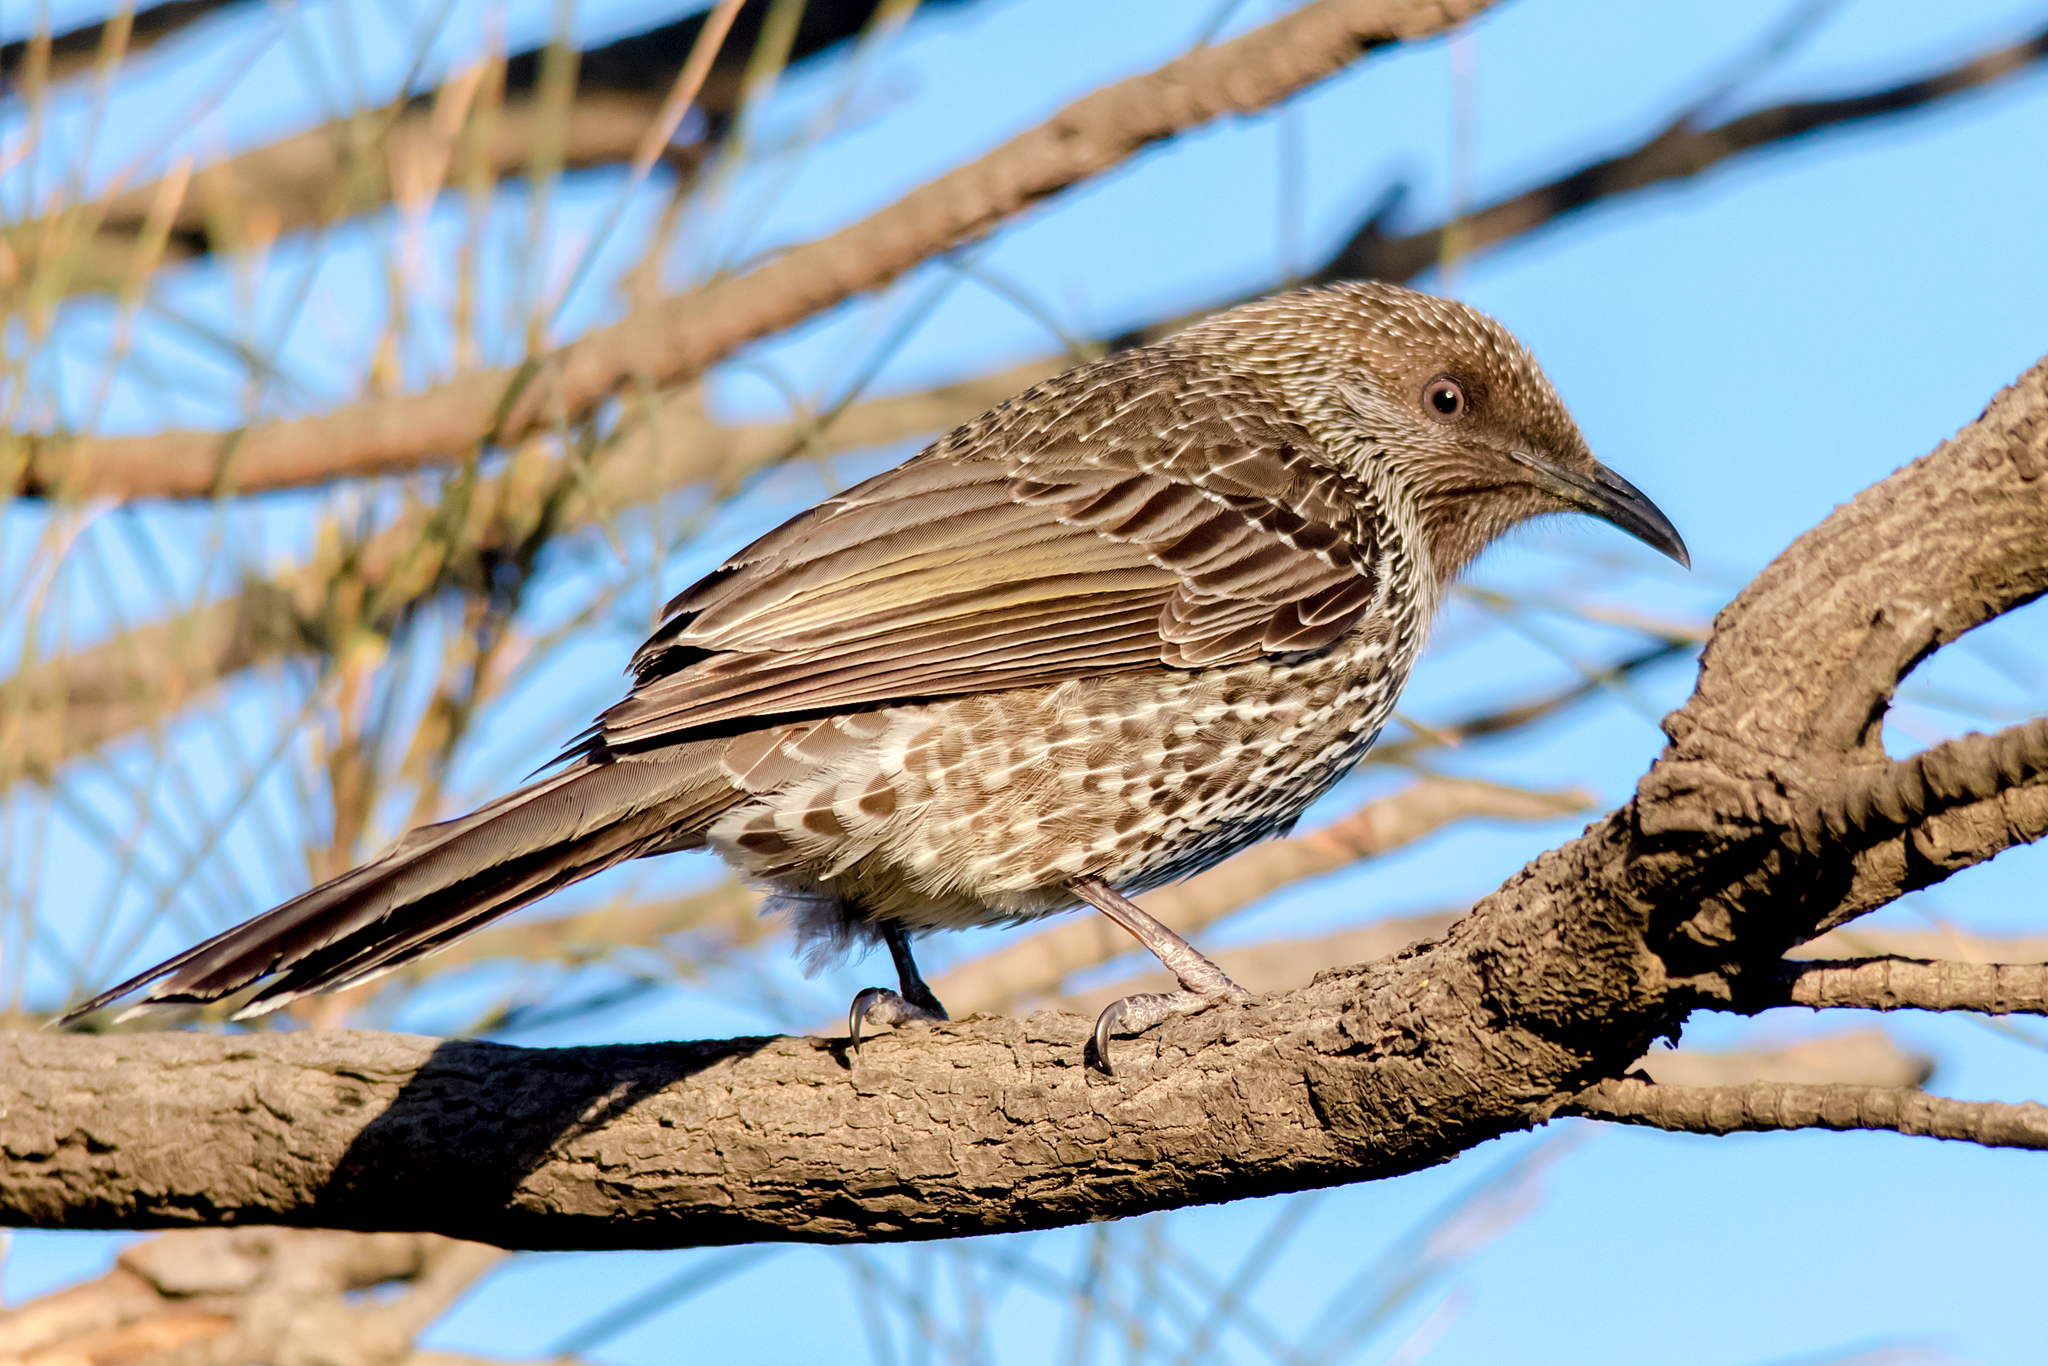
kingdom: Animalia
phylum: Chordata
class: Aves
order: Passeriformes
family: Meliphagidae
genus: Anthochaera
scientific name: Anthochaera chrysoptera
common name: Little wattlebird
